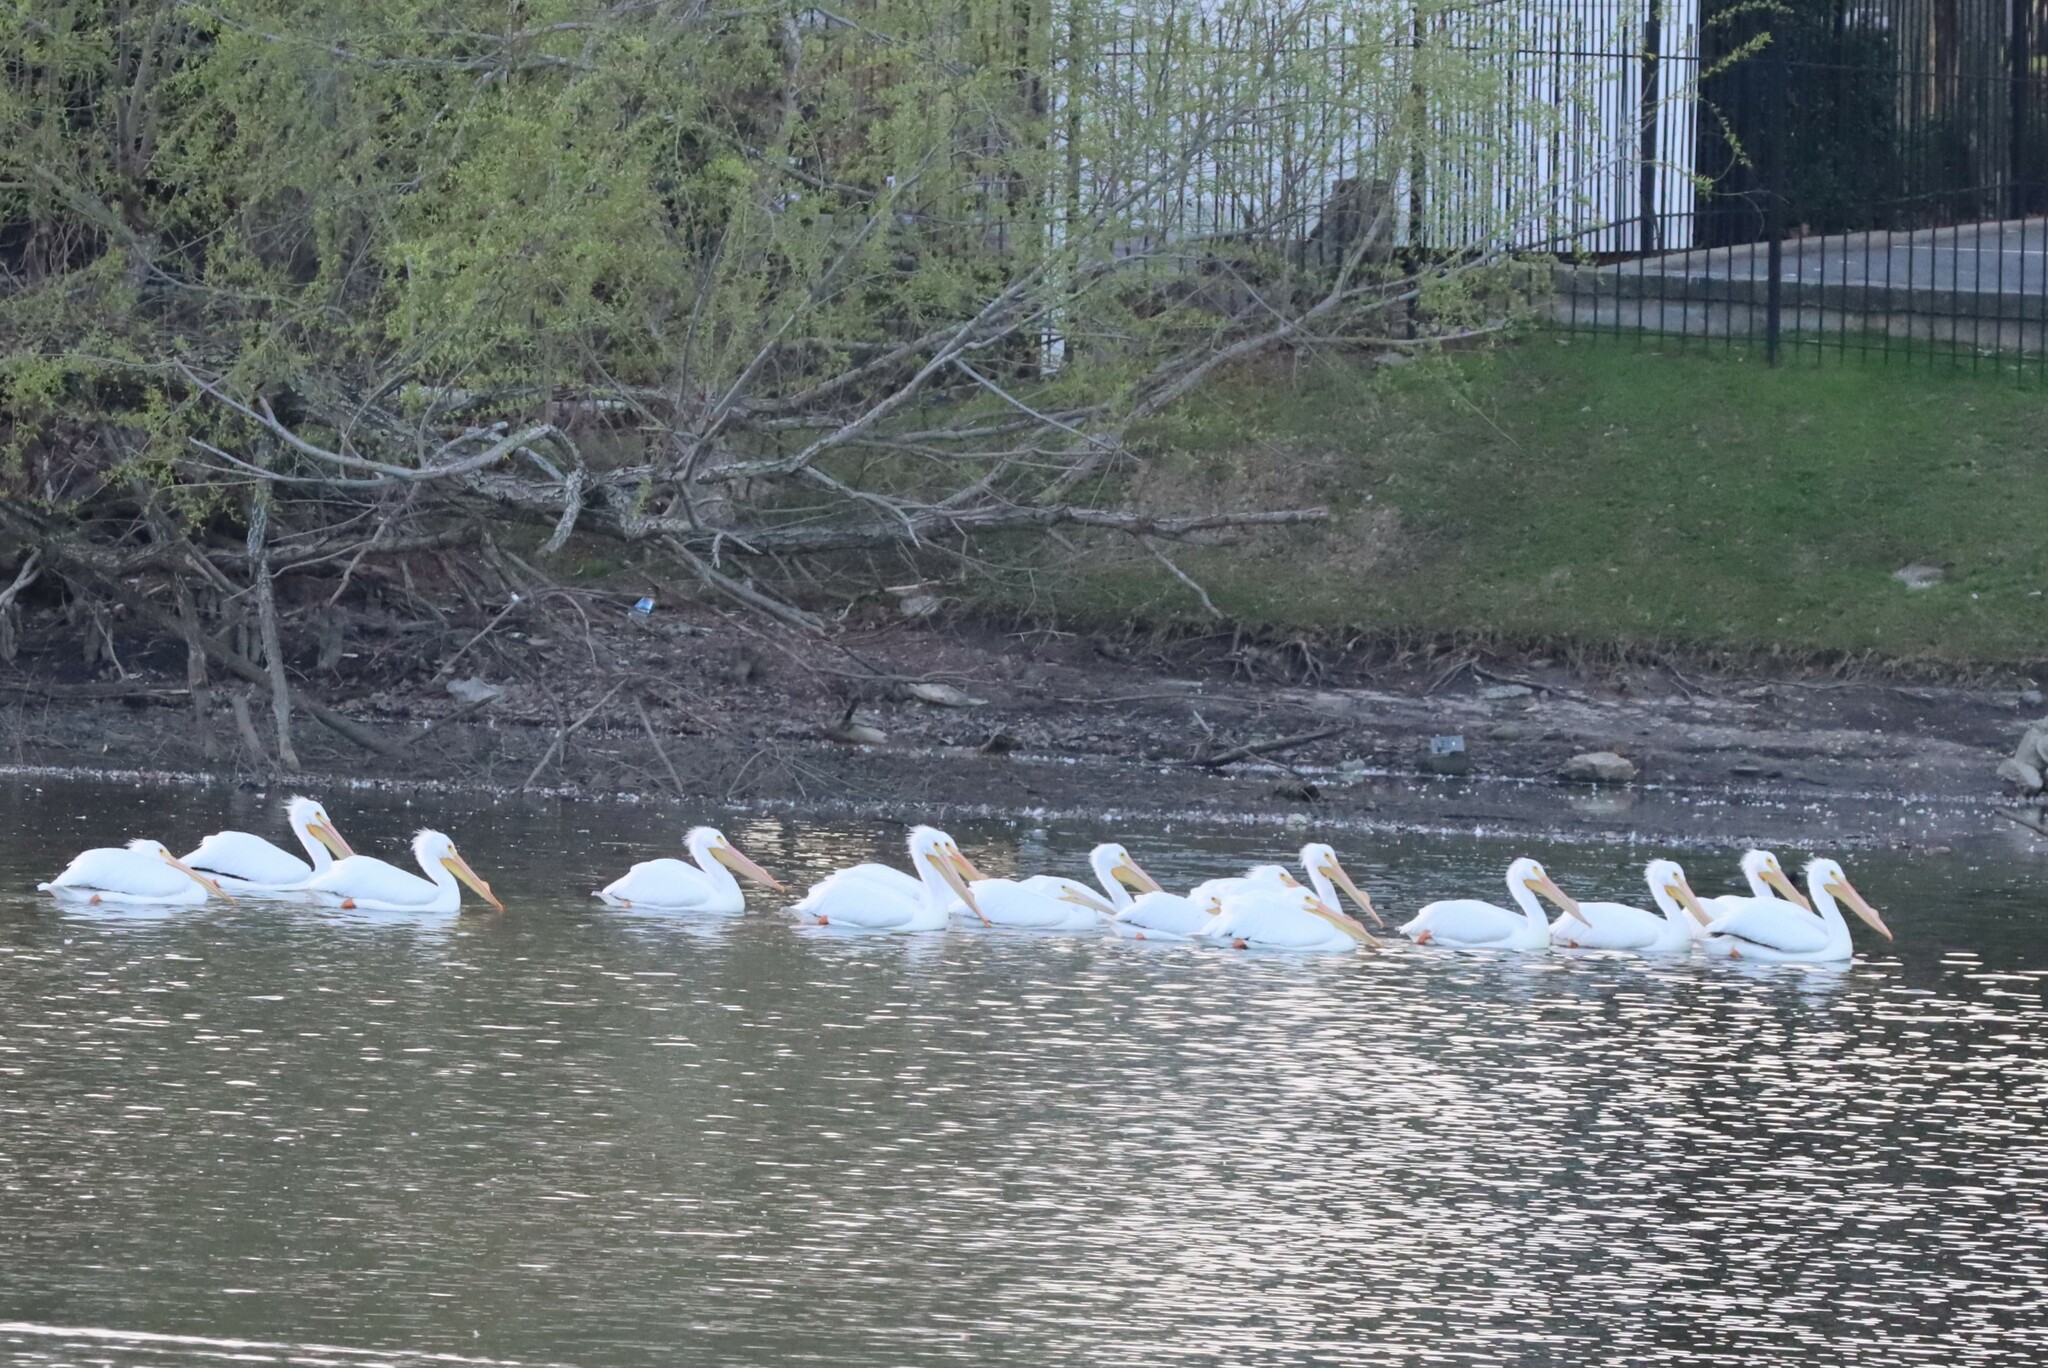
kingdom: Animalia
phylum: Chordata
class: Aves
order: Pelecaniformes
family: Pelecanidae
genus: Pelecanus
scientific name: Pelecanus erythrorhynchos
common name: American white pelican
